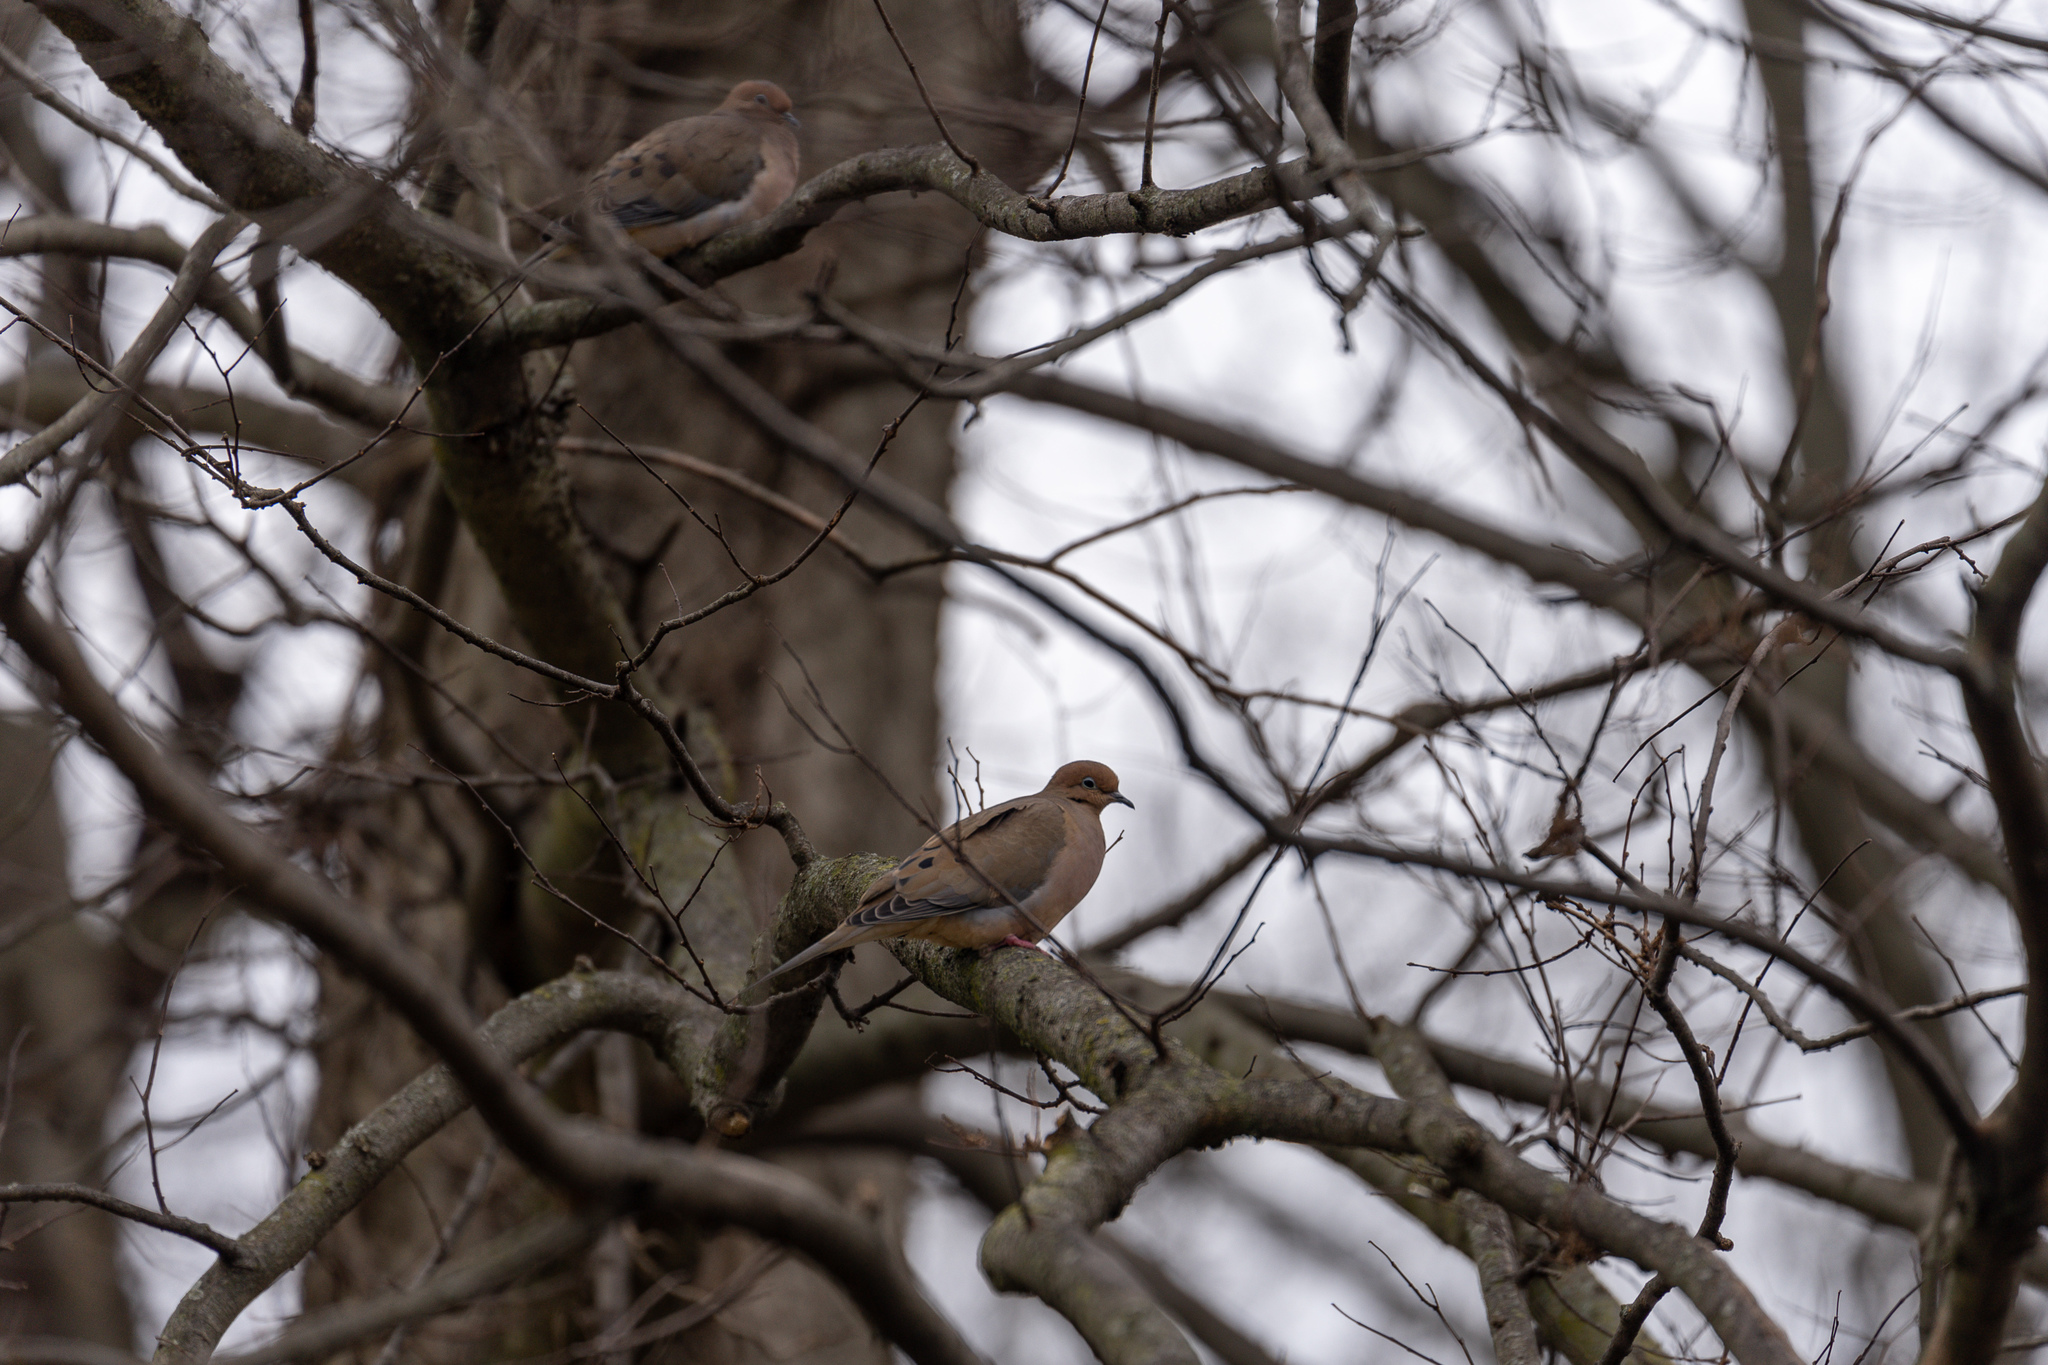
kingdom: Animalia
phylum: Chordata
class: Aves
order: Columbiformes
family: Columbidae
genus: Zenaida
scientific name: Zenaida macroura
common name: Mourning dove
